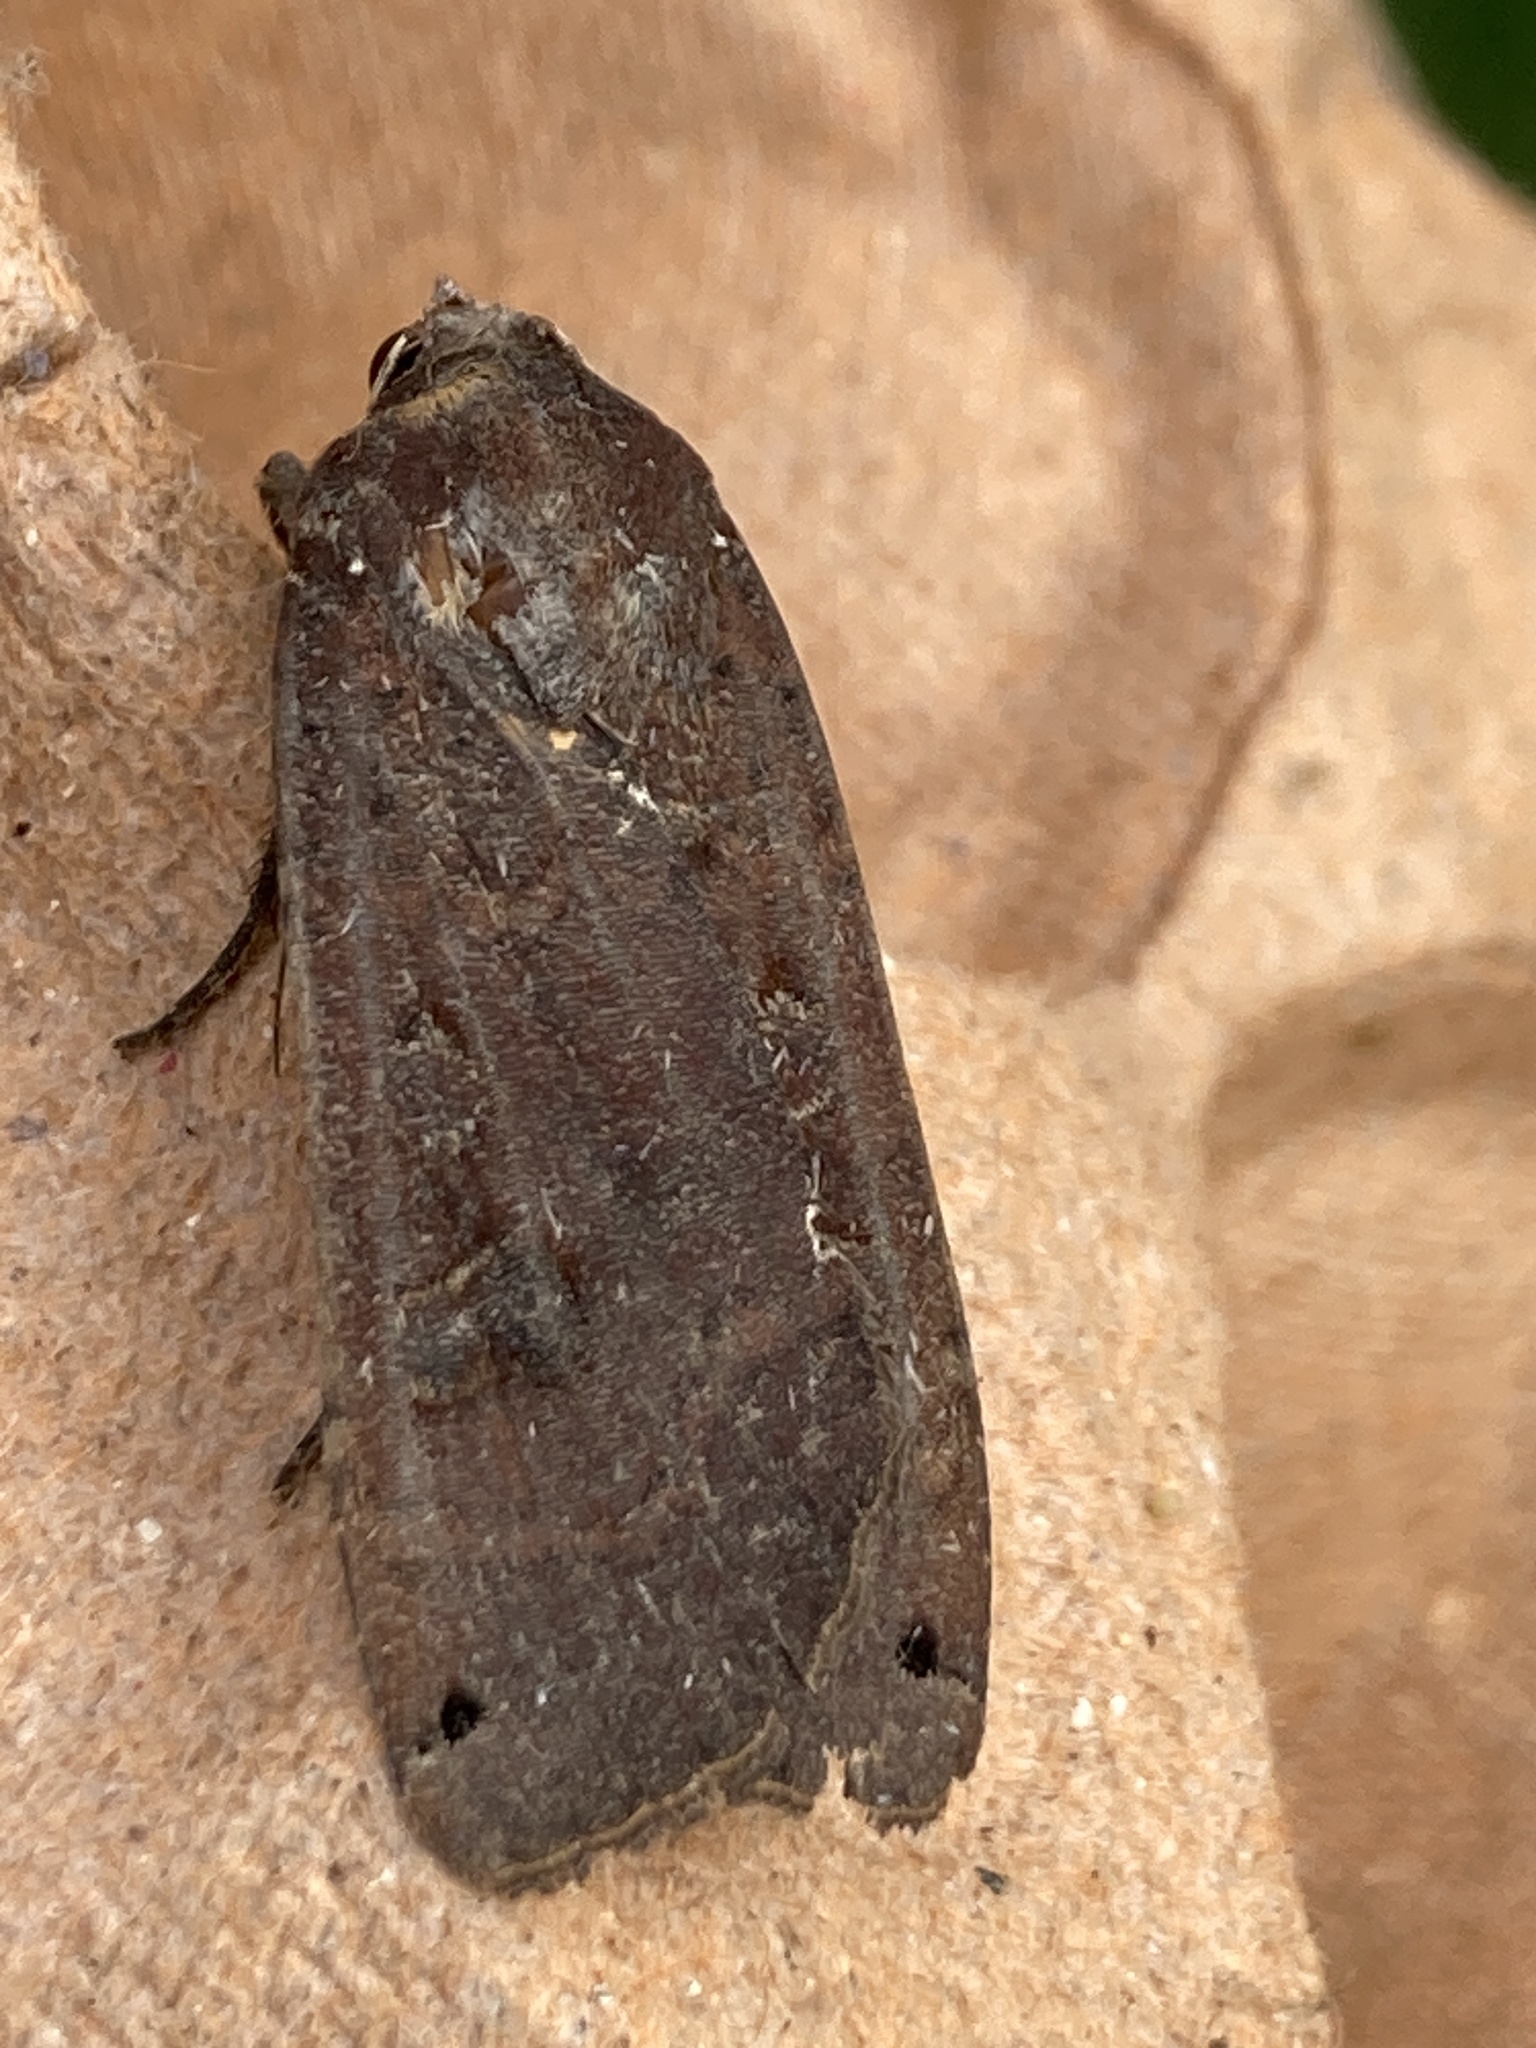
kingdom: Animalia
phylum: Arthropoda
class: Insecta
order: Lepidoptera
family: Noctuidae
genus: Noctua
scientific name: Noctua pronuba
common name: Large yellow underwing
